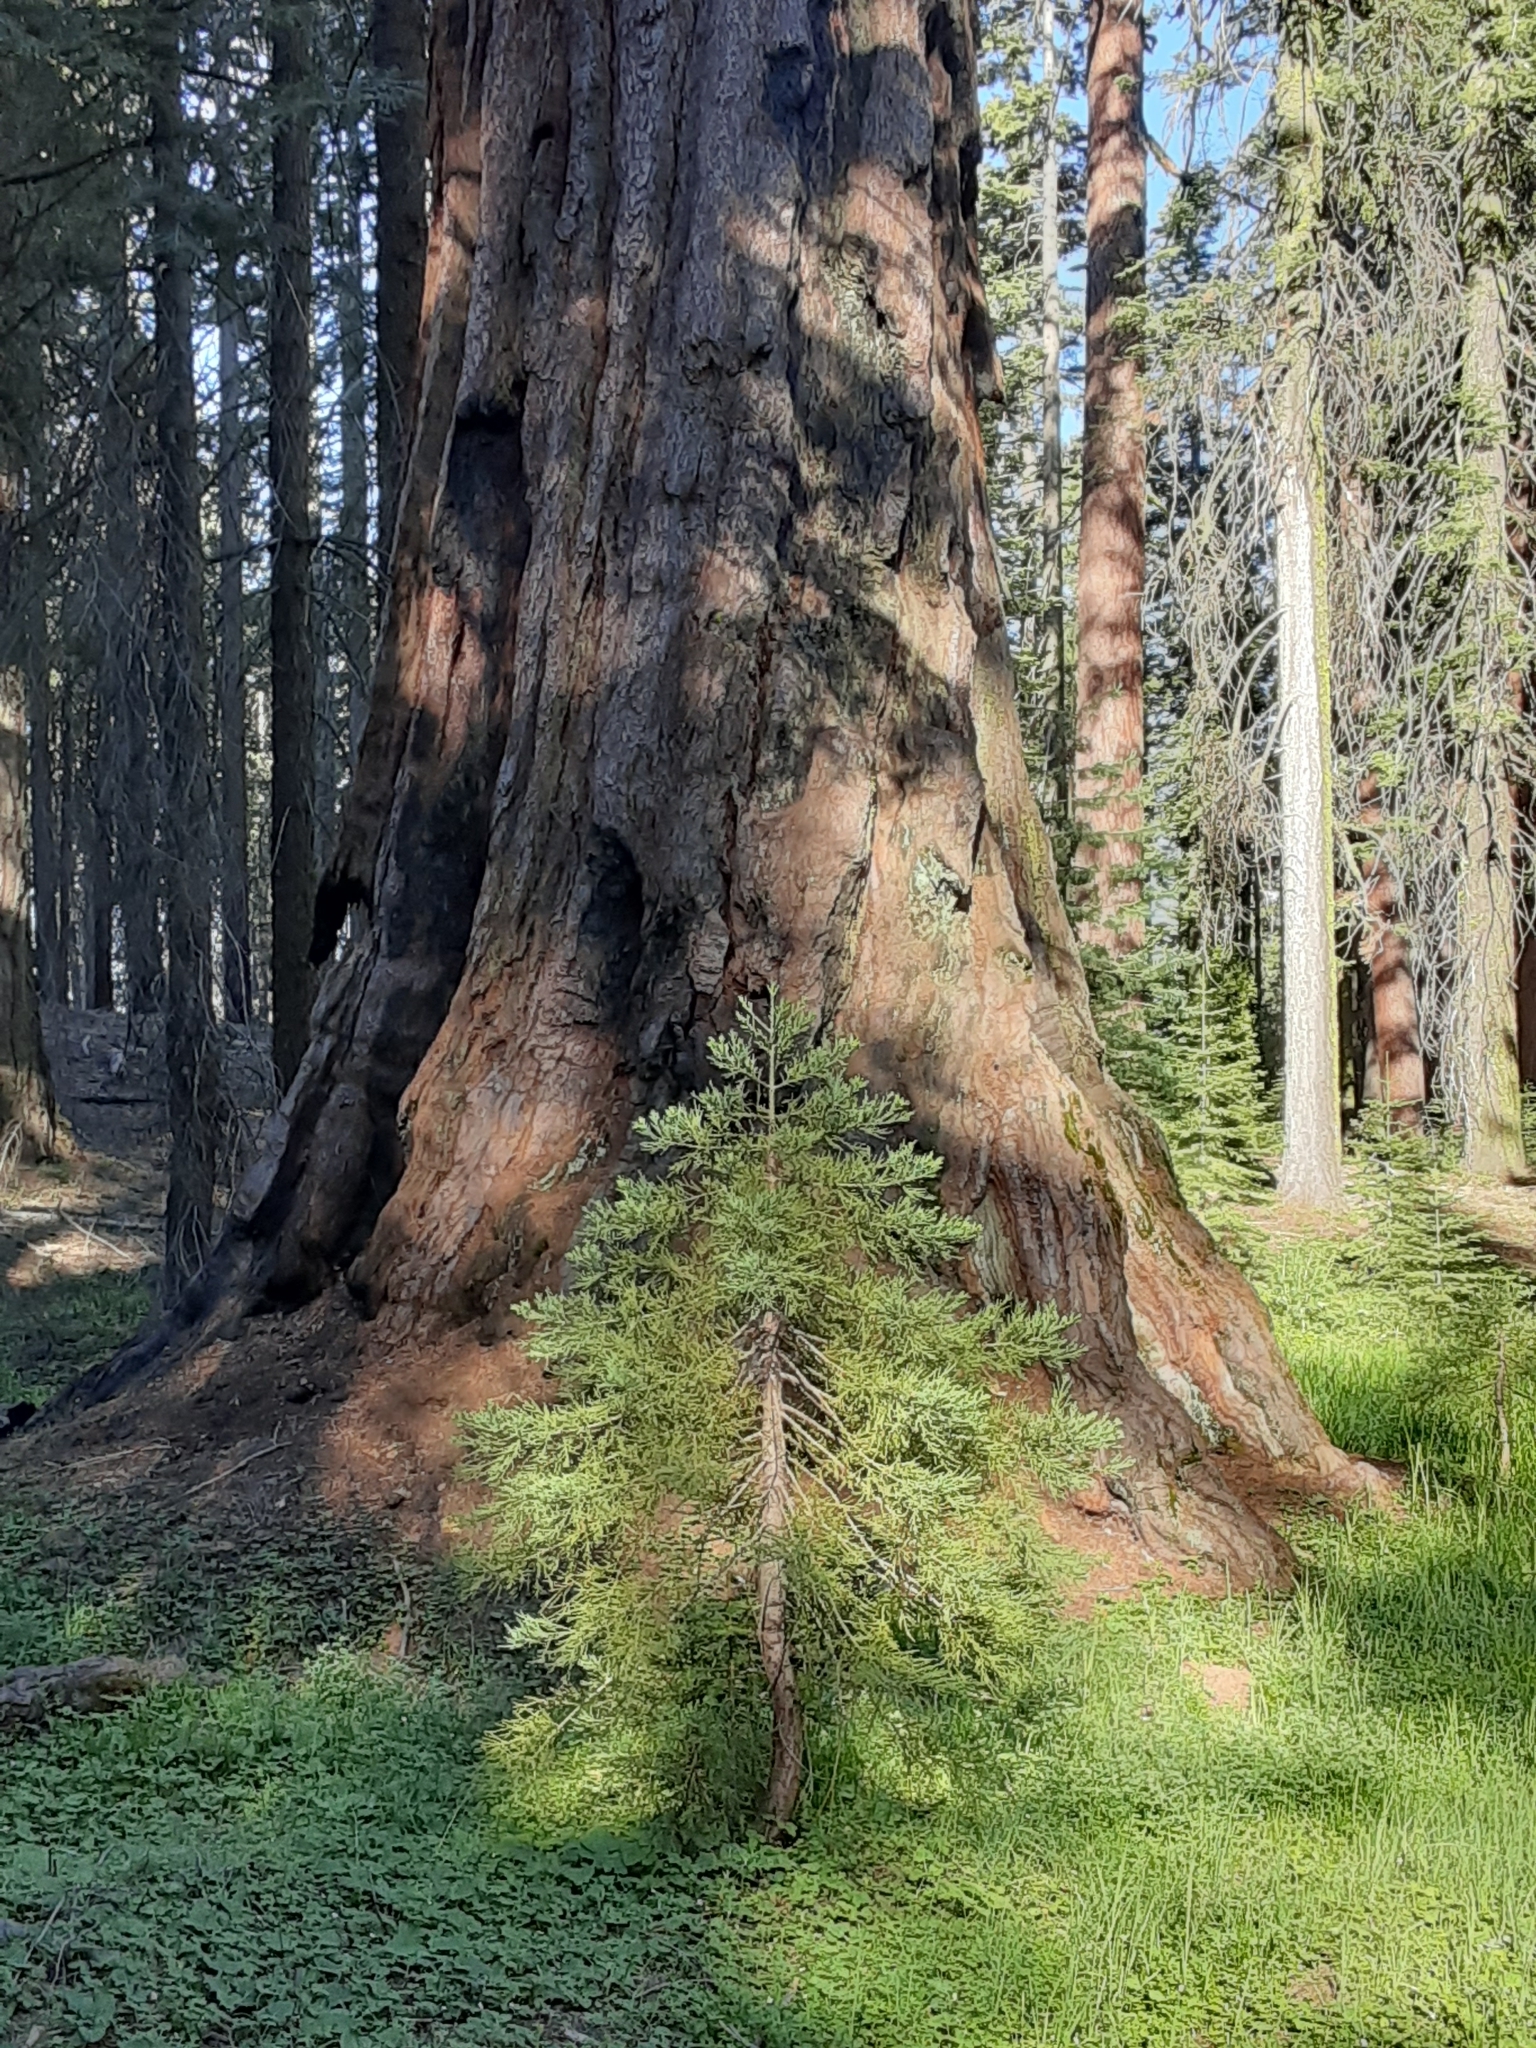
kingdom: Plantae
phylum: Tracheophyta
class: Pinopsida
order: Pinales
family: Cupressaceae
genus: Sequoiadendron
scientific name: Sequoiadendron giganteum
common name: Wellingtonia
